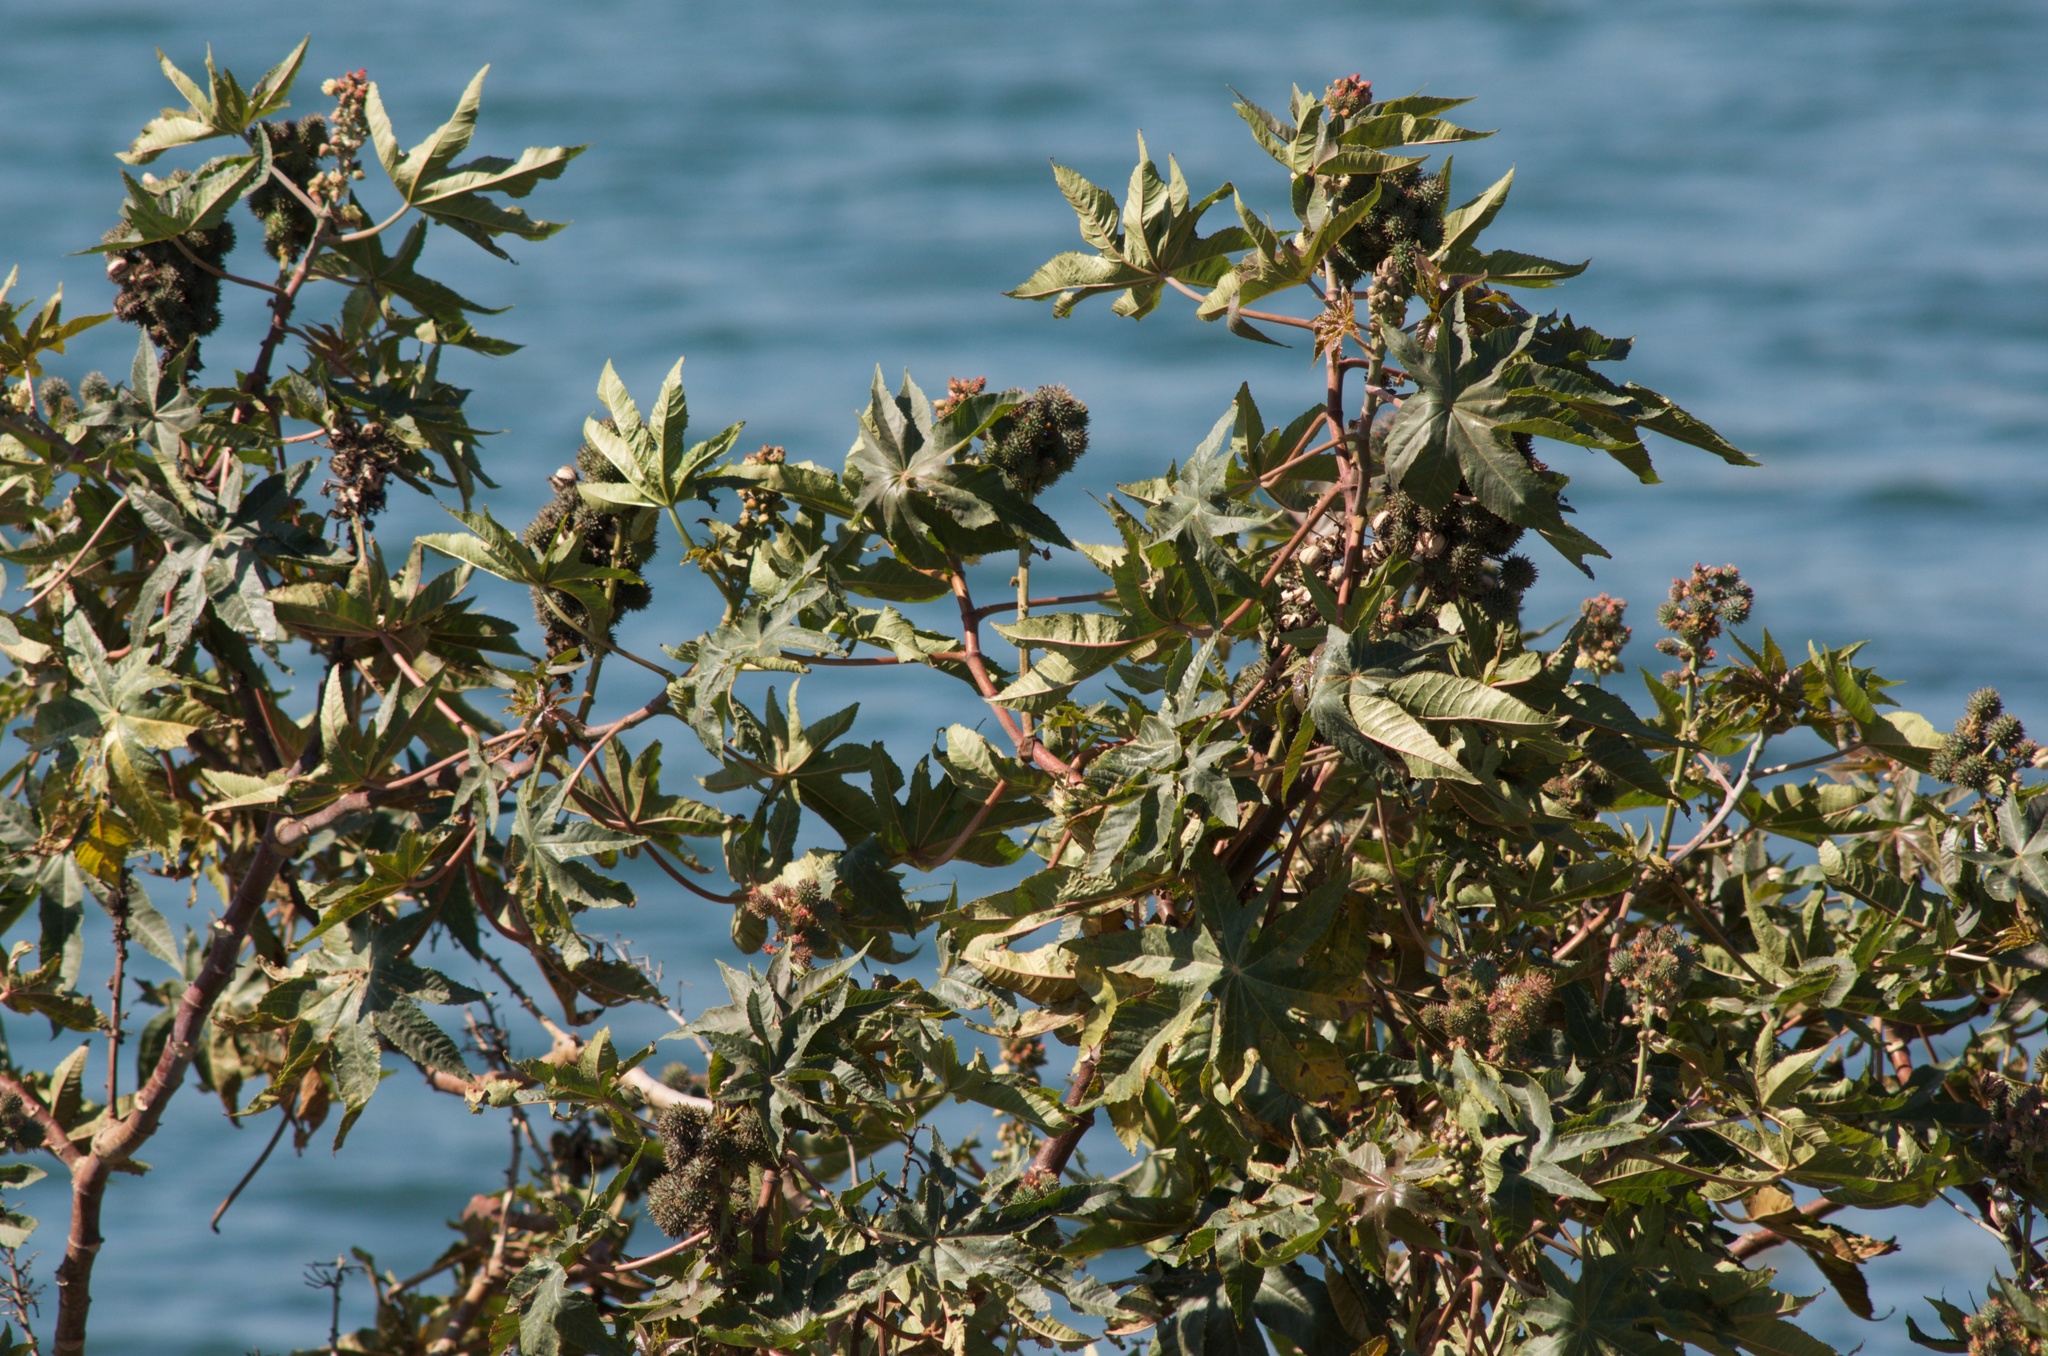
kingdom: Plantae
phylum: Tracheophyta
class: Magnoliopsida
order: Malpighiales
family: Euphorbiaceae
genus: Ricinus
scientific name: Ricinus communis
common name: Castor-oil-plant
